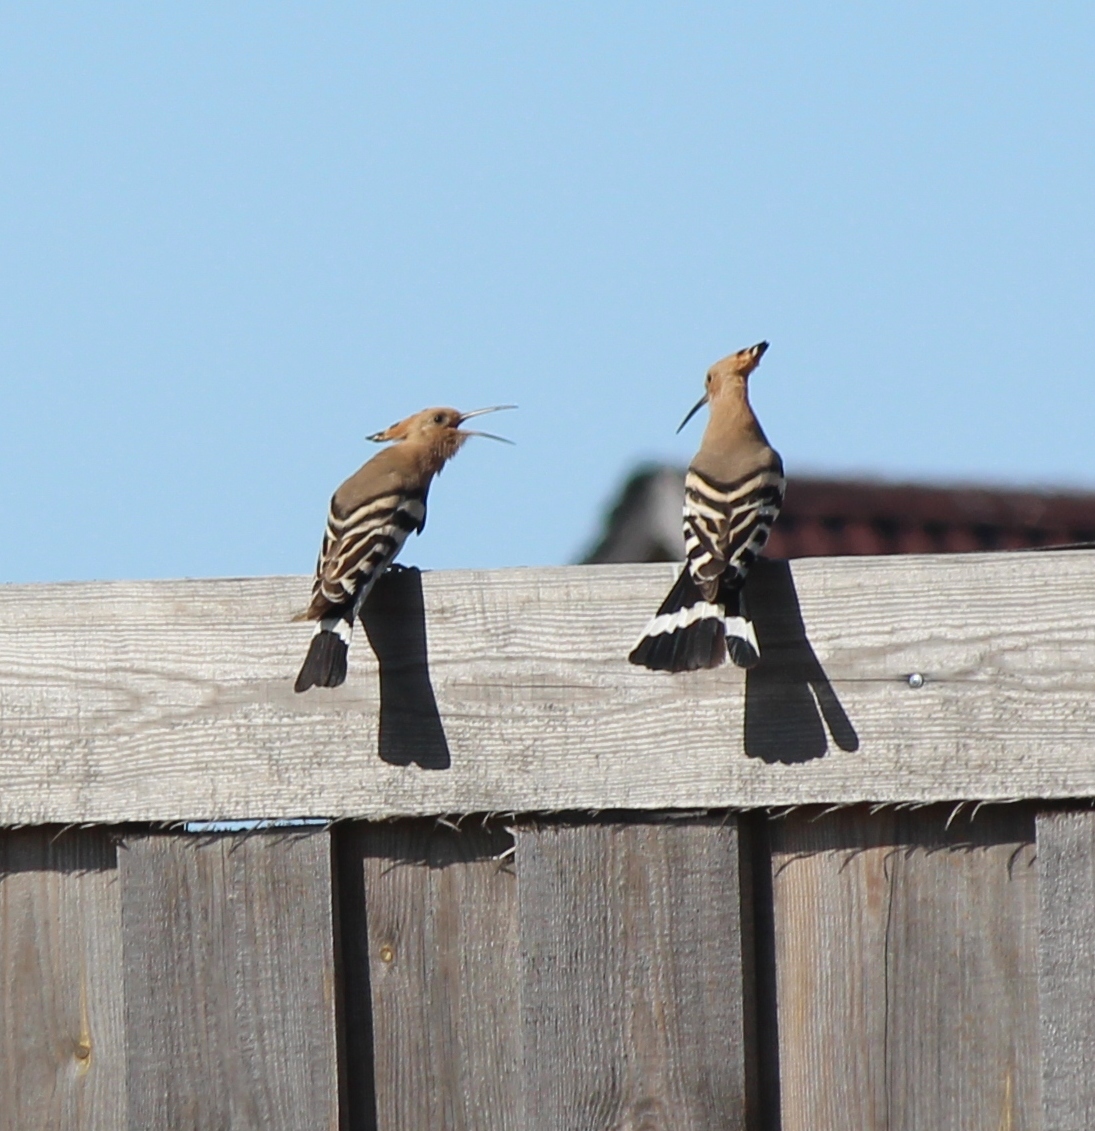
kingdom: Animalia
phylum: Chordata
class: Aves
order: Bucerotiformes
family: Upupidae
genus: Upupa
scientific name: Upupa epops
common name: Eurasian hoopoe
